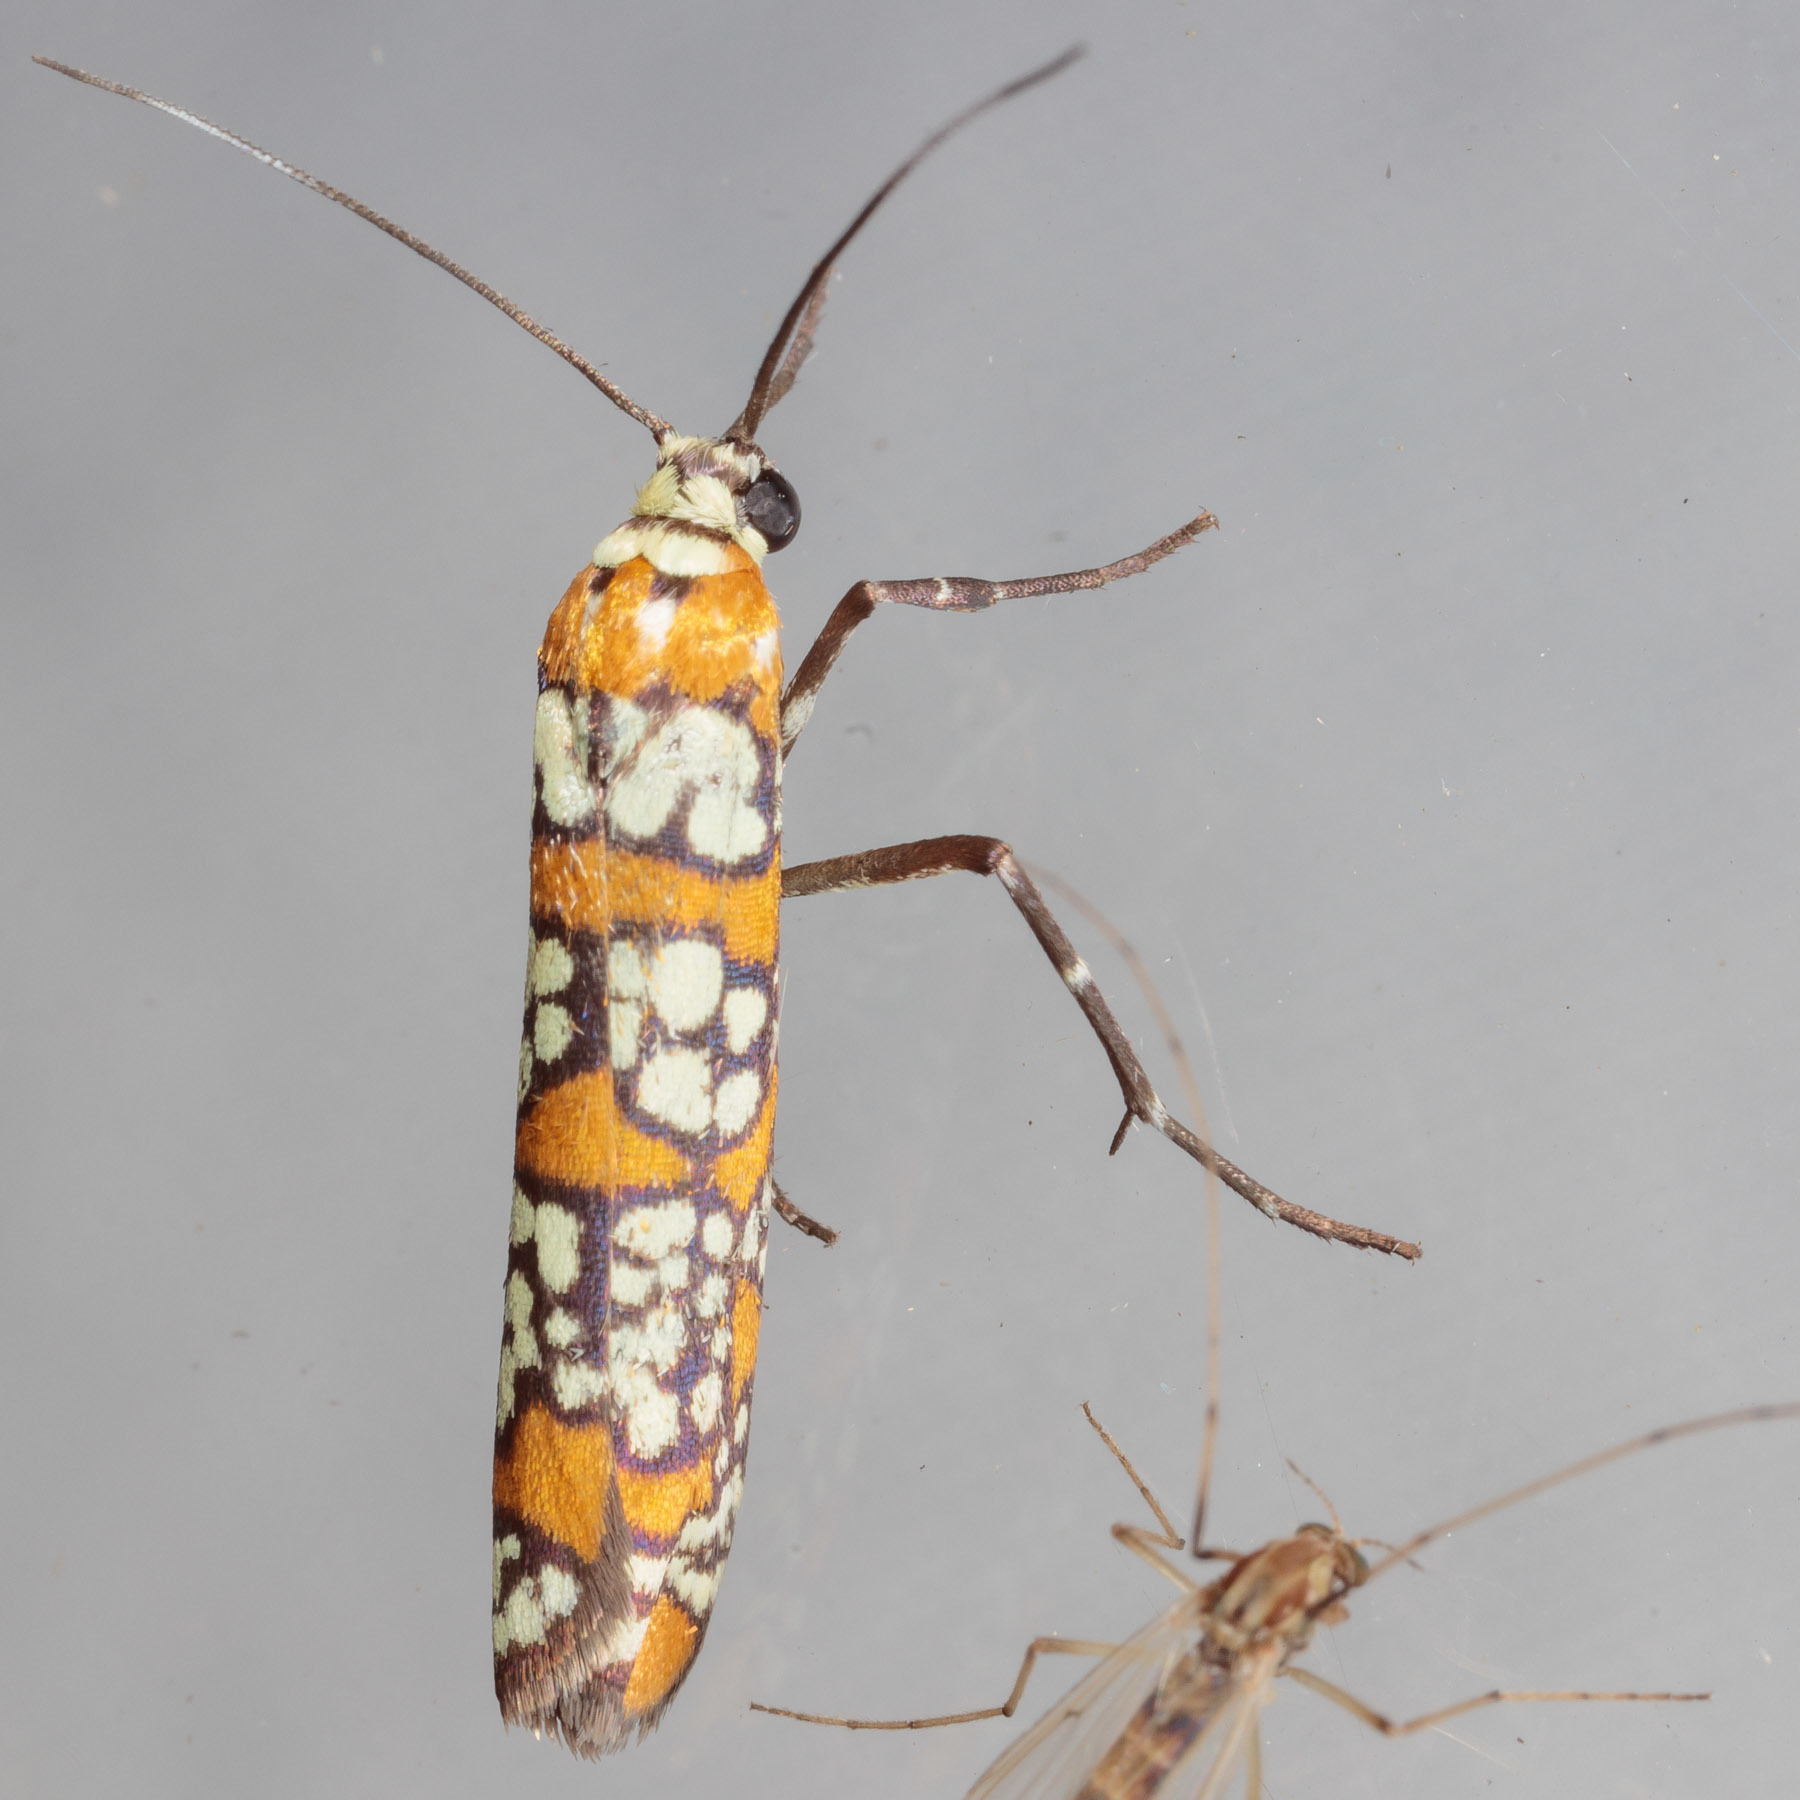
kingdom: Animalia
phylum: Arthropoda
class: Insecta
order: Lepidoptera
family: Attevidae
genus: Atteva
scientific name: Atteva punctella
